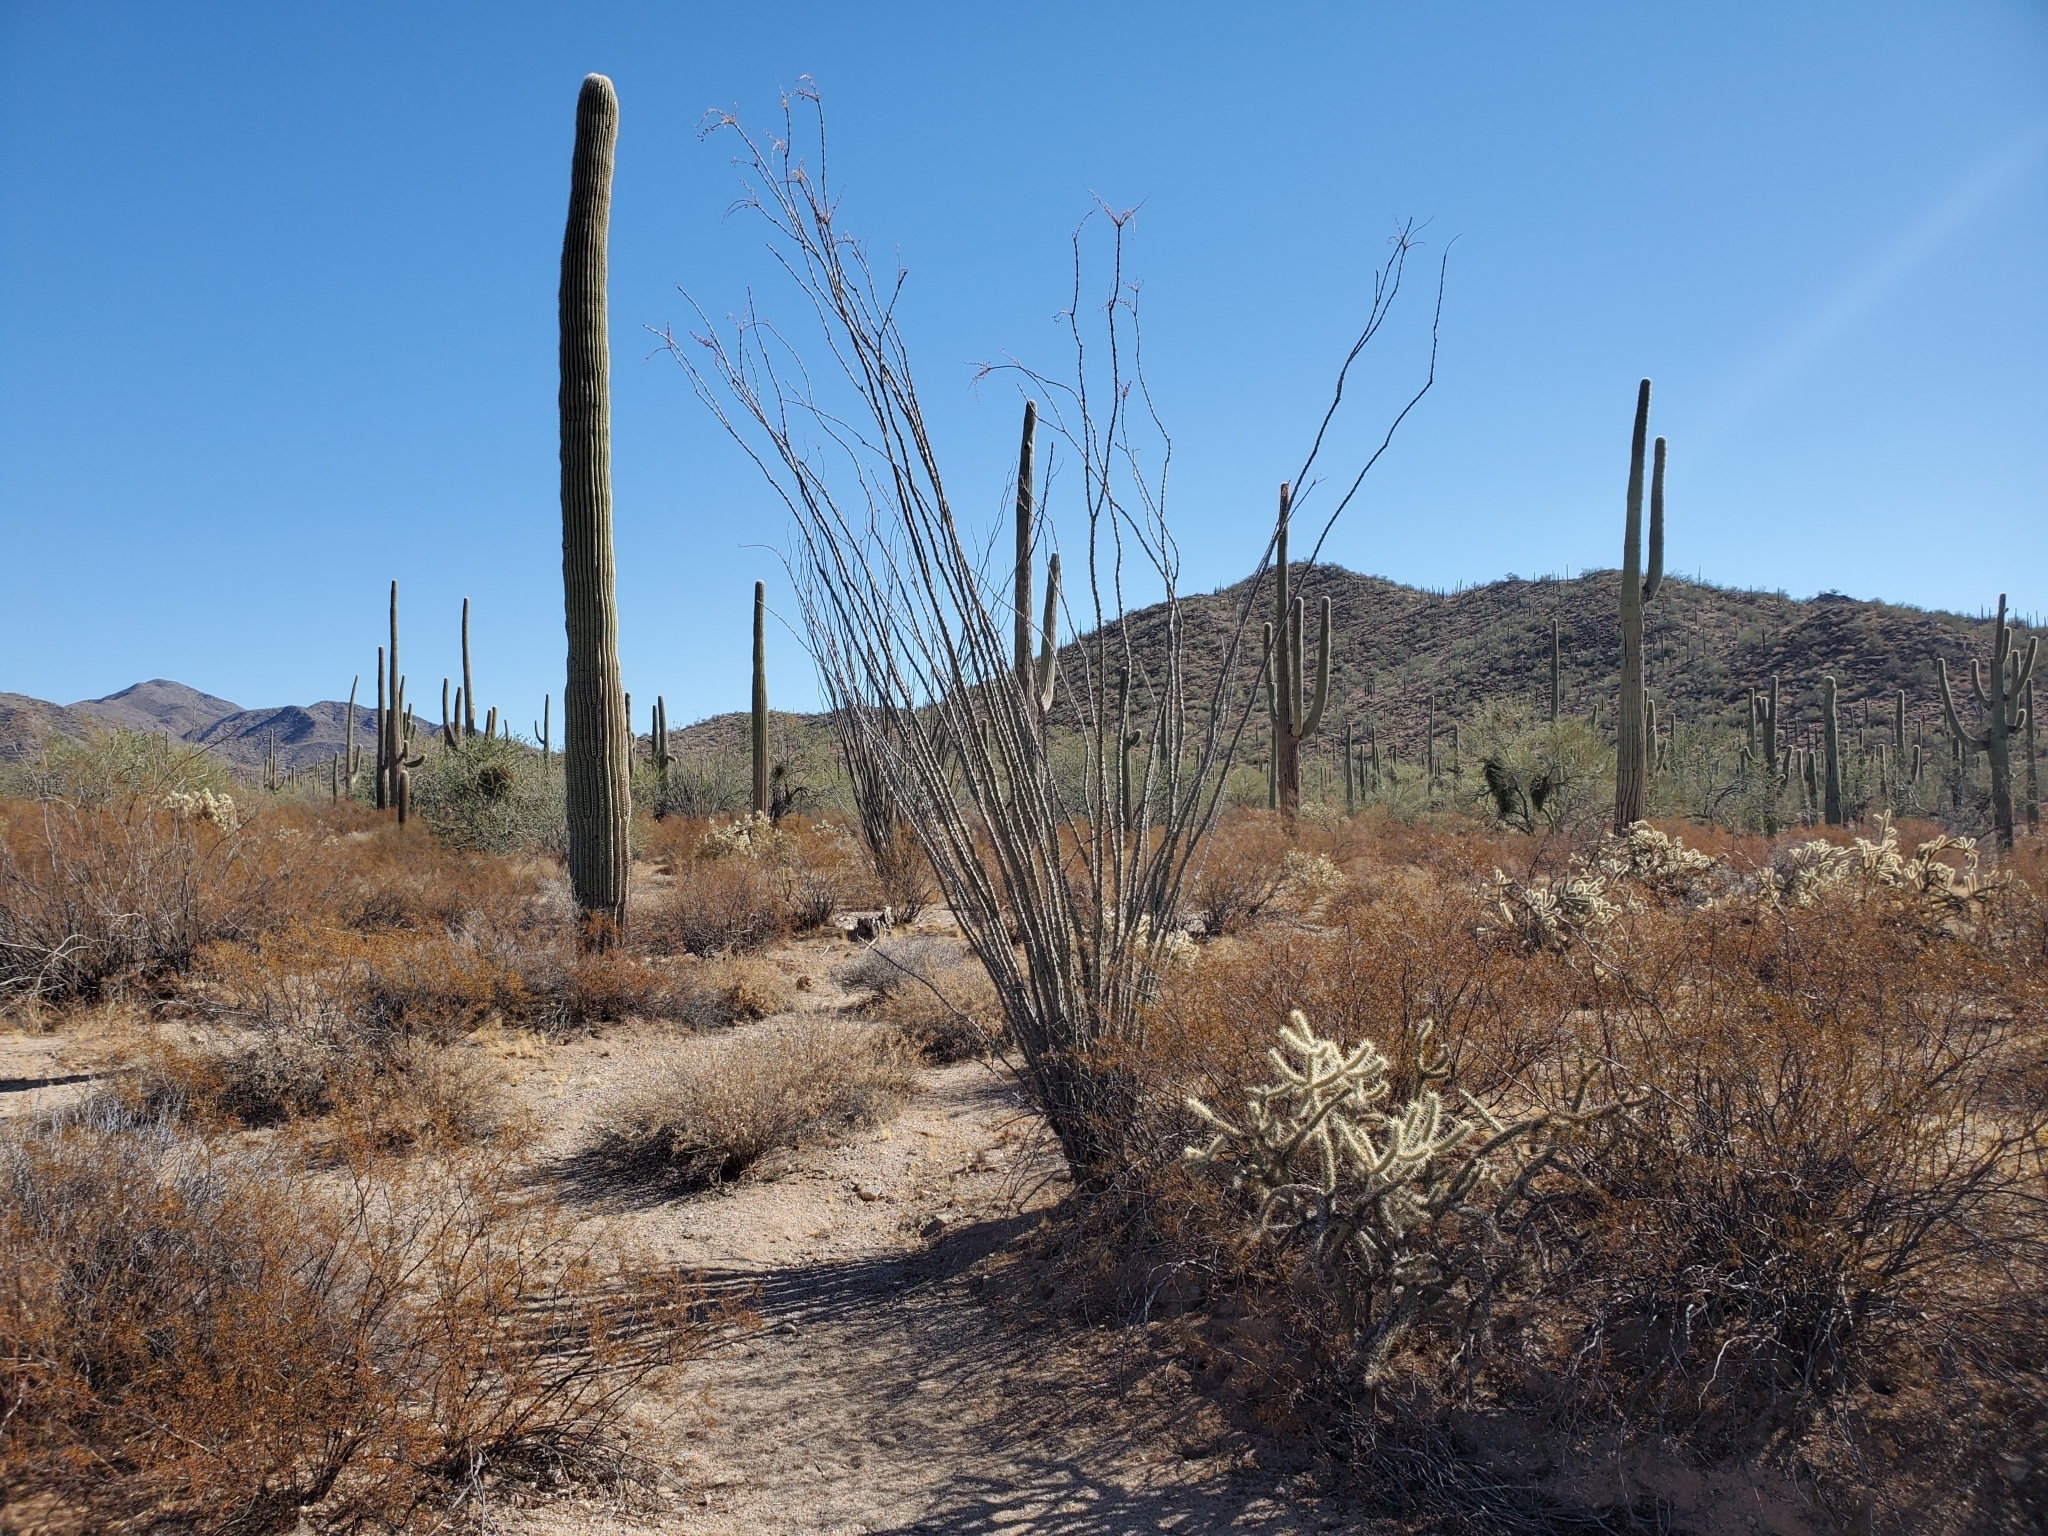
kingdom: Plantae
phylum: Tracheophyta
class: Magnoliopsida
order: Ericales
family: Fouquieriaceae
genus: Fouquieria
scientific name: Fouquieria splendens
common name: Vine-cactus
